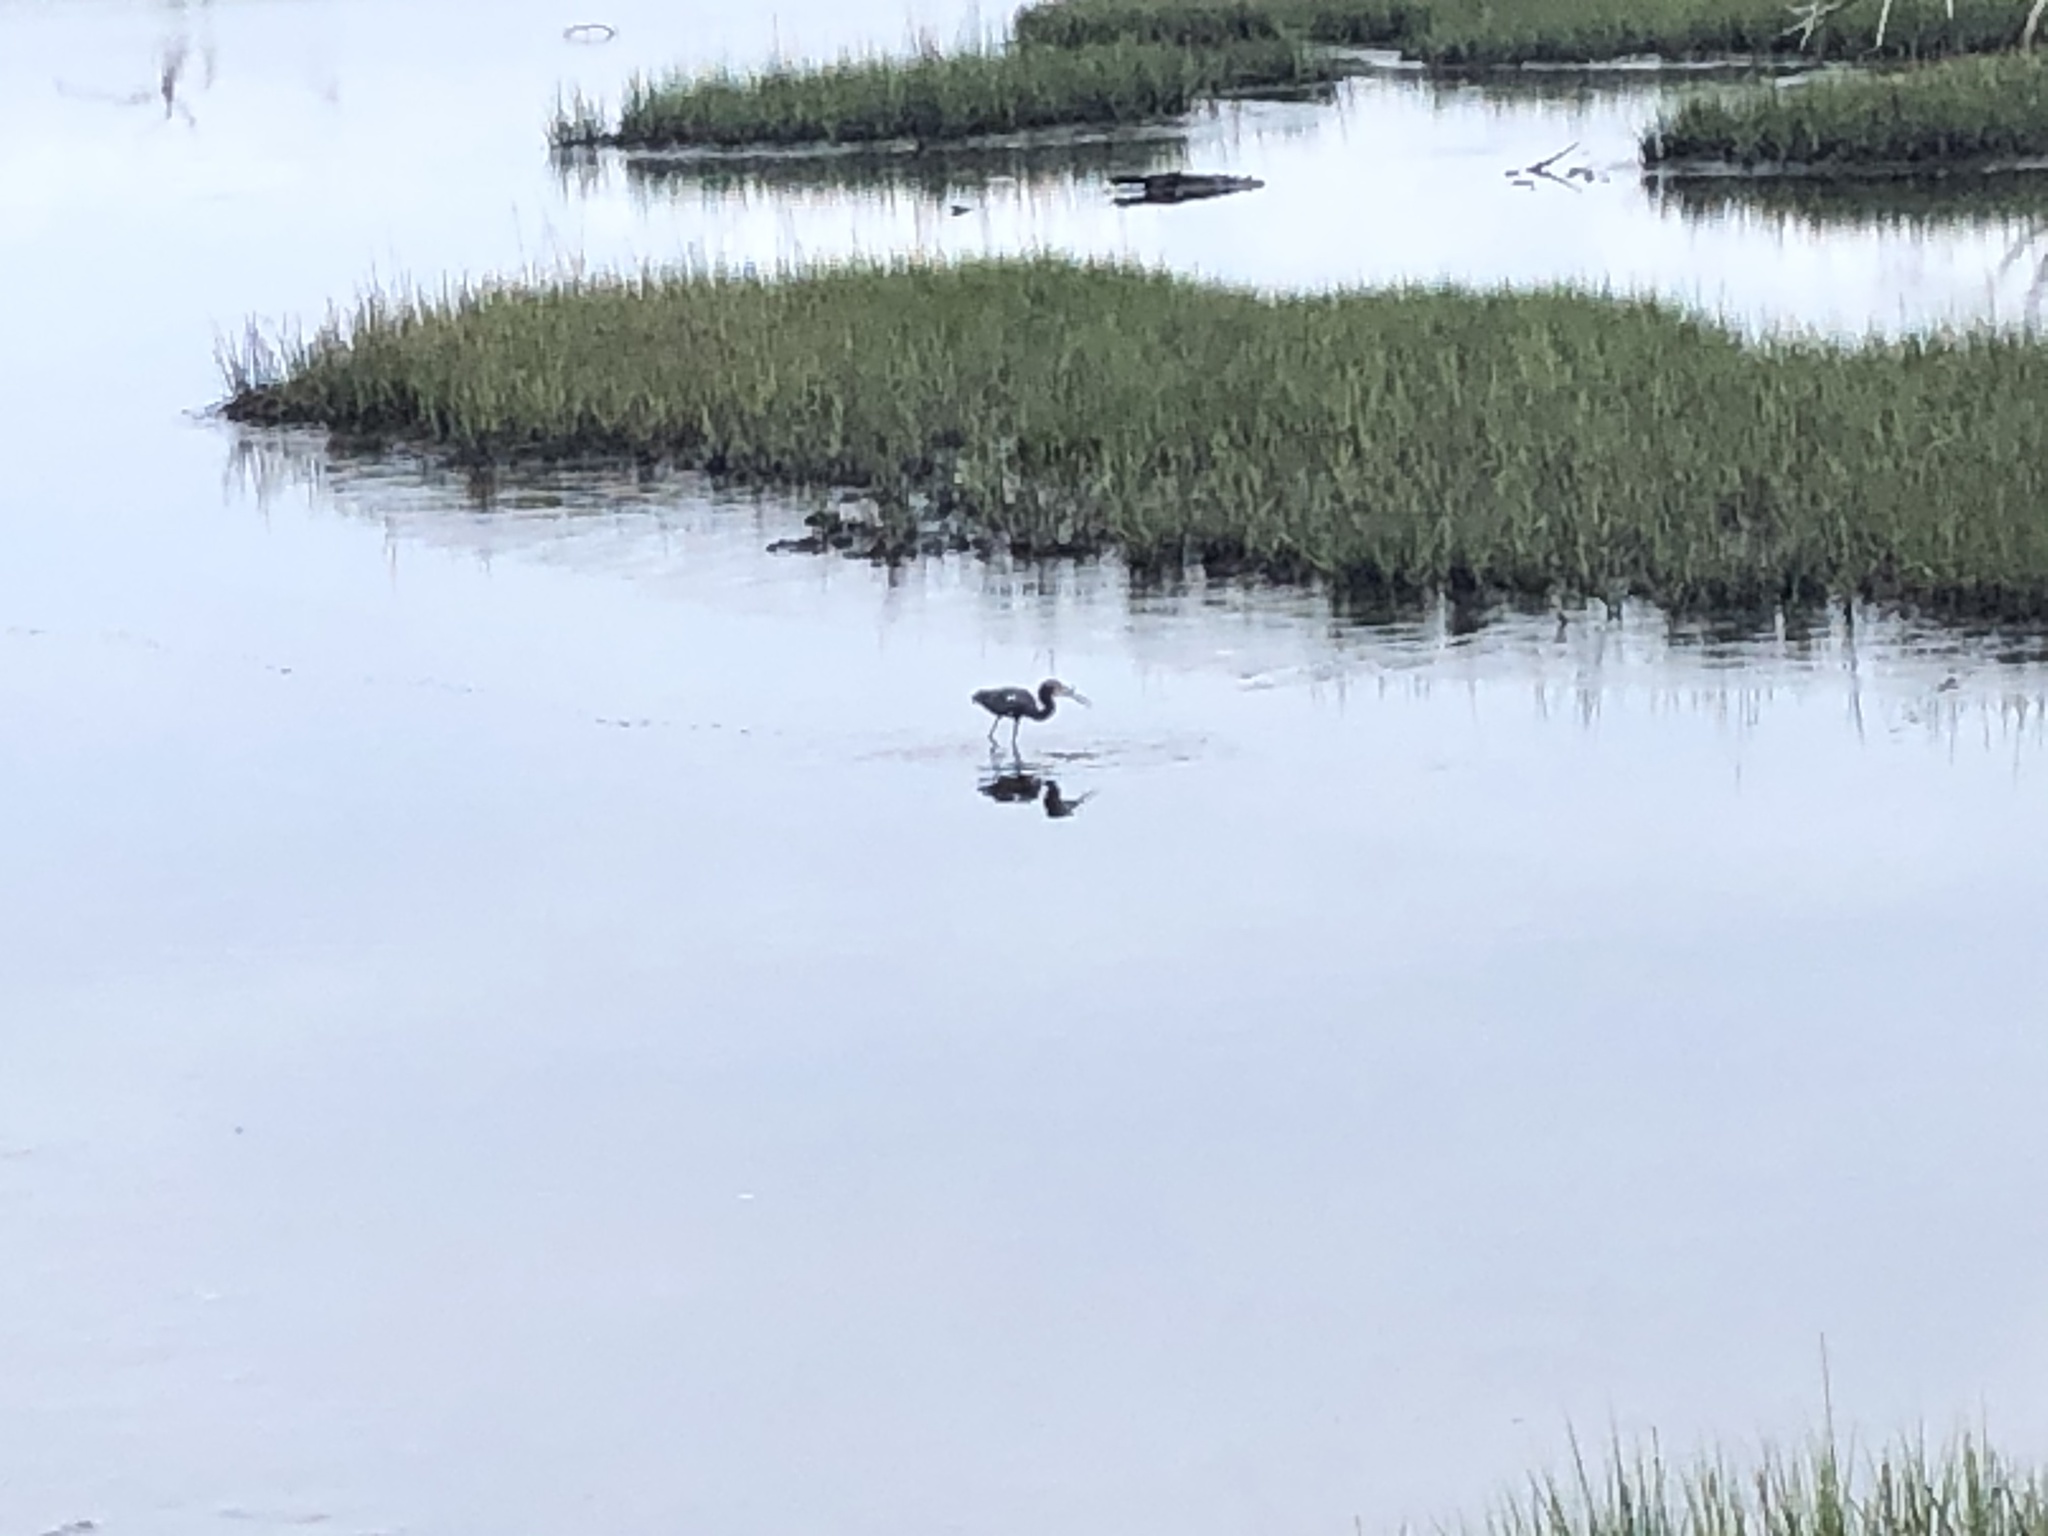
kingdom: Animalia
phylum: Chordata
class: Aves
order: Pelecaniformes
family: Ardeidae
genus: Egretta
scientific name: Egretta tricolor
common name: Tricolored heron
